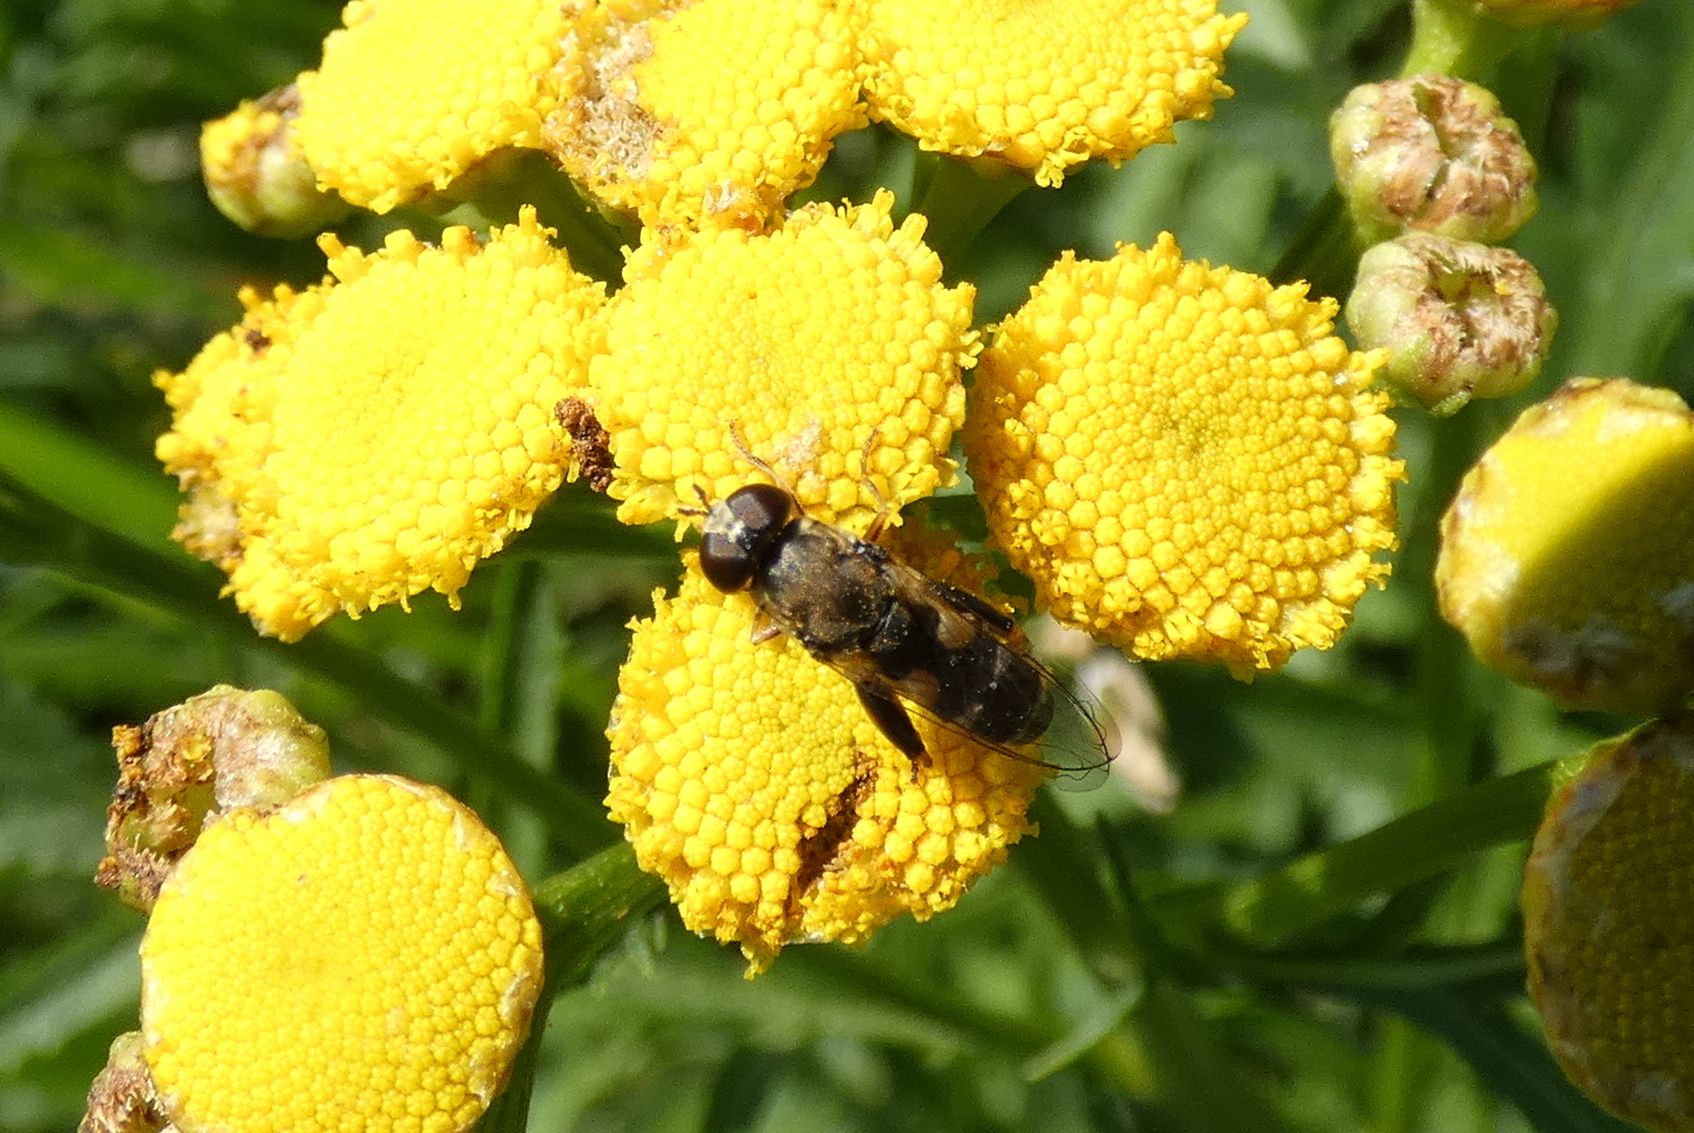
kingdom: Animalia
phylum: Arthropoda
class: Insecta
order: Diptera
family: Syrphidae
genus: Syritta
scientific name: Syritta pipiens
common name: Hover fly
